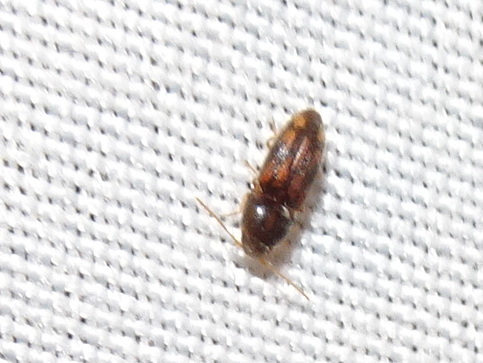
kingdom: Animalia
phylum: Arthropoda
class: Insecta
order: Coleoptera
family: Elateridae
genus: Monocrepidius
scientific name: Monocrepidius bellus
